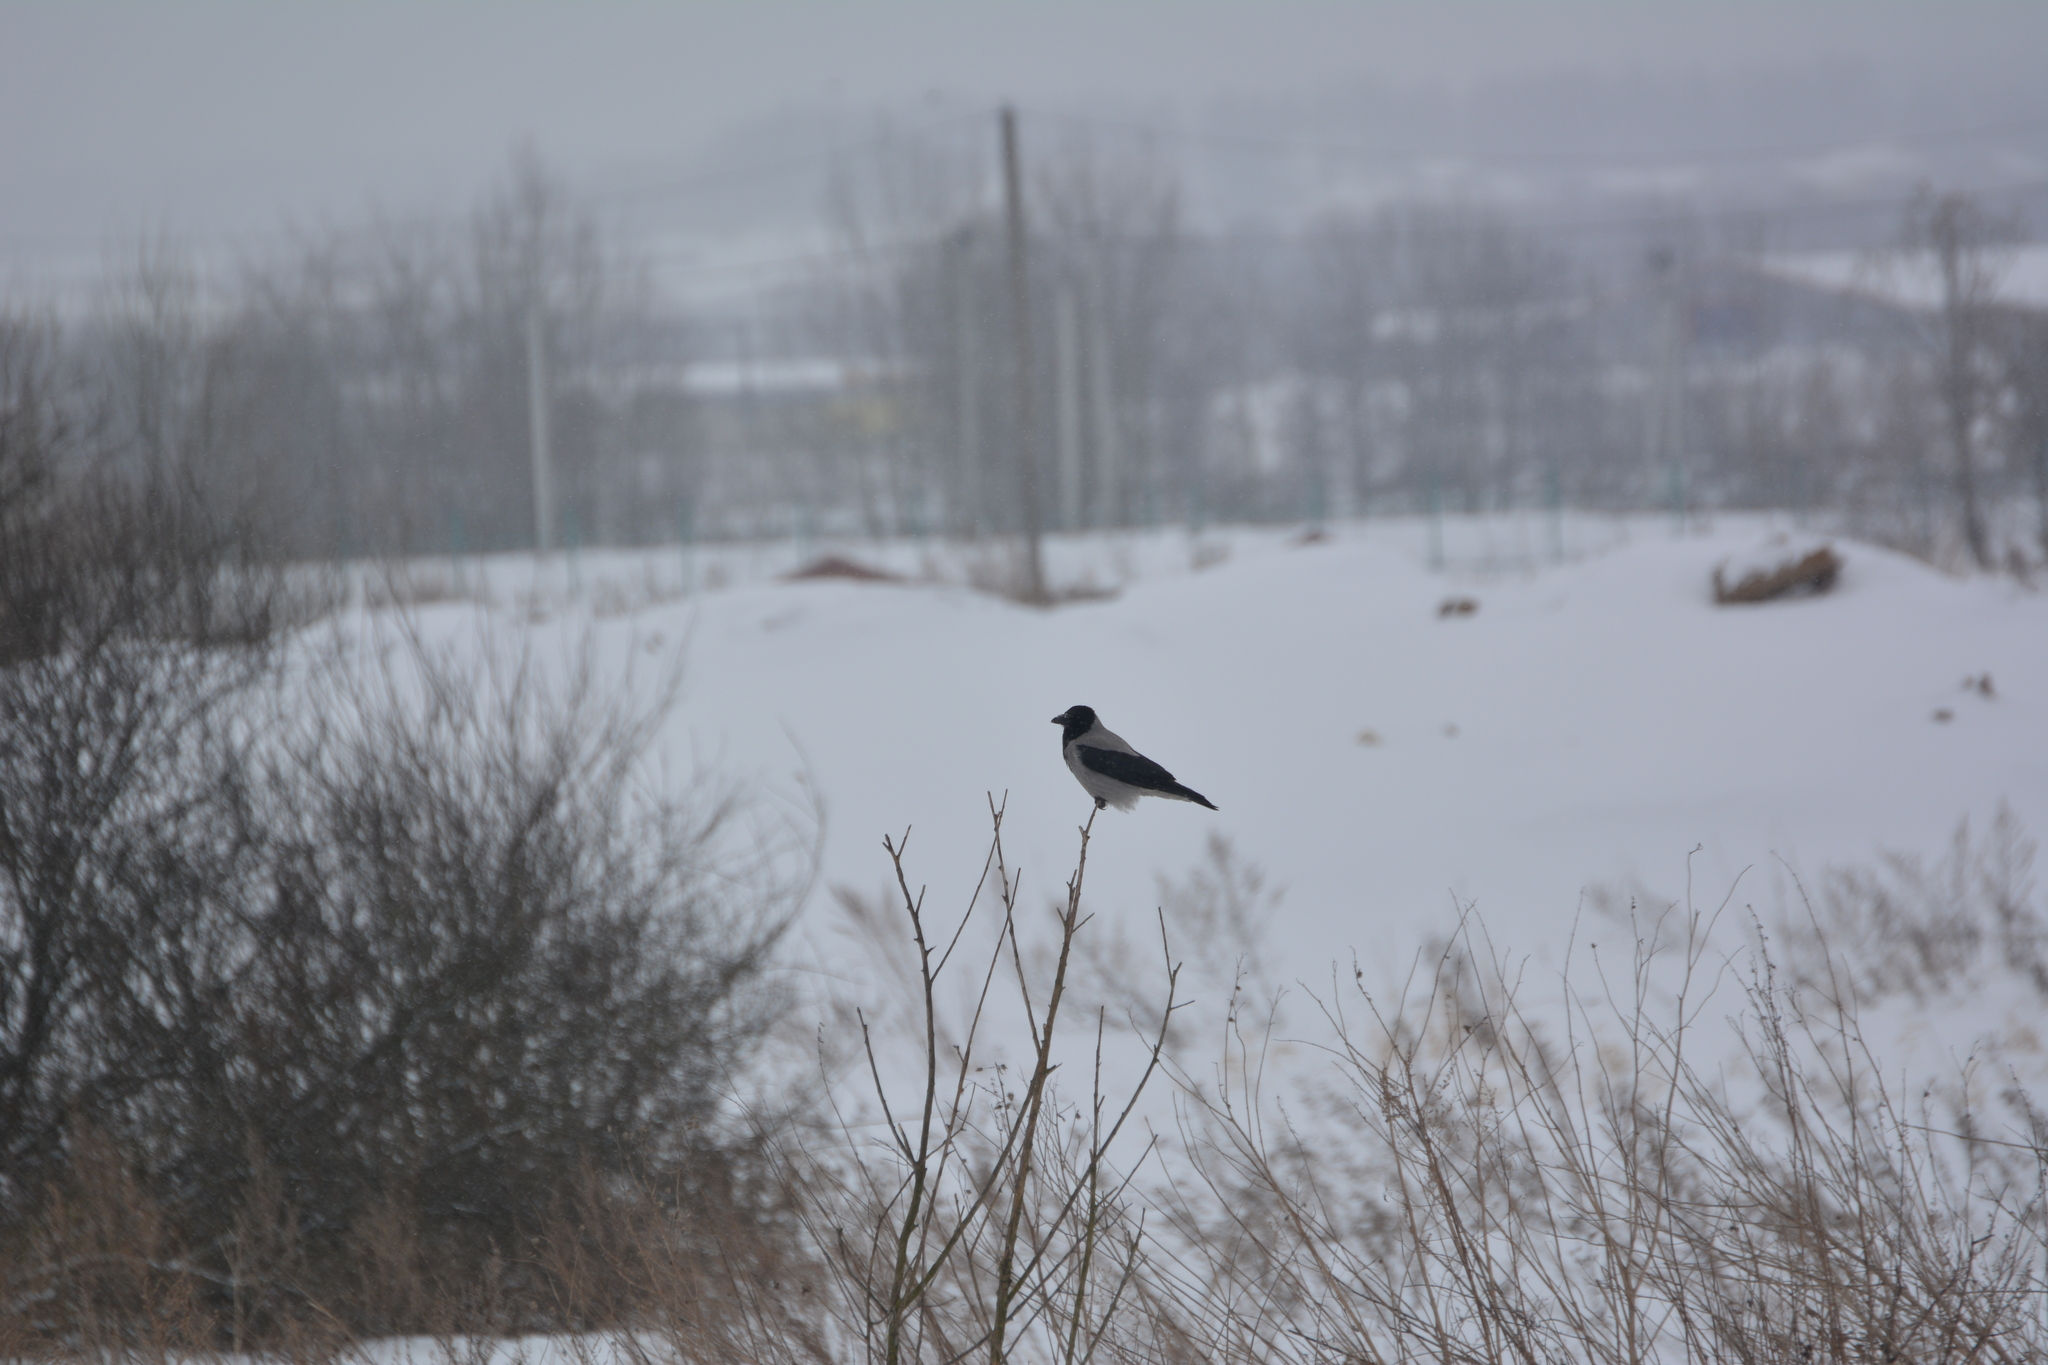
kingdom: Animalia
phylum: Chordata
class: Aves
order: Passeriformes
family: Corvidae
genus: Corvus
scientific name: Corvus cornix
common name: Hooded crow
